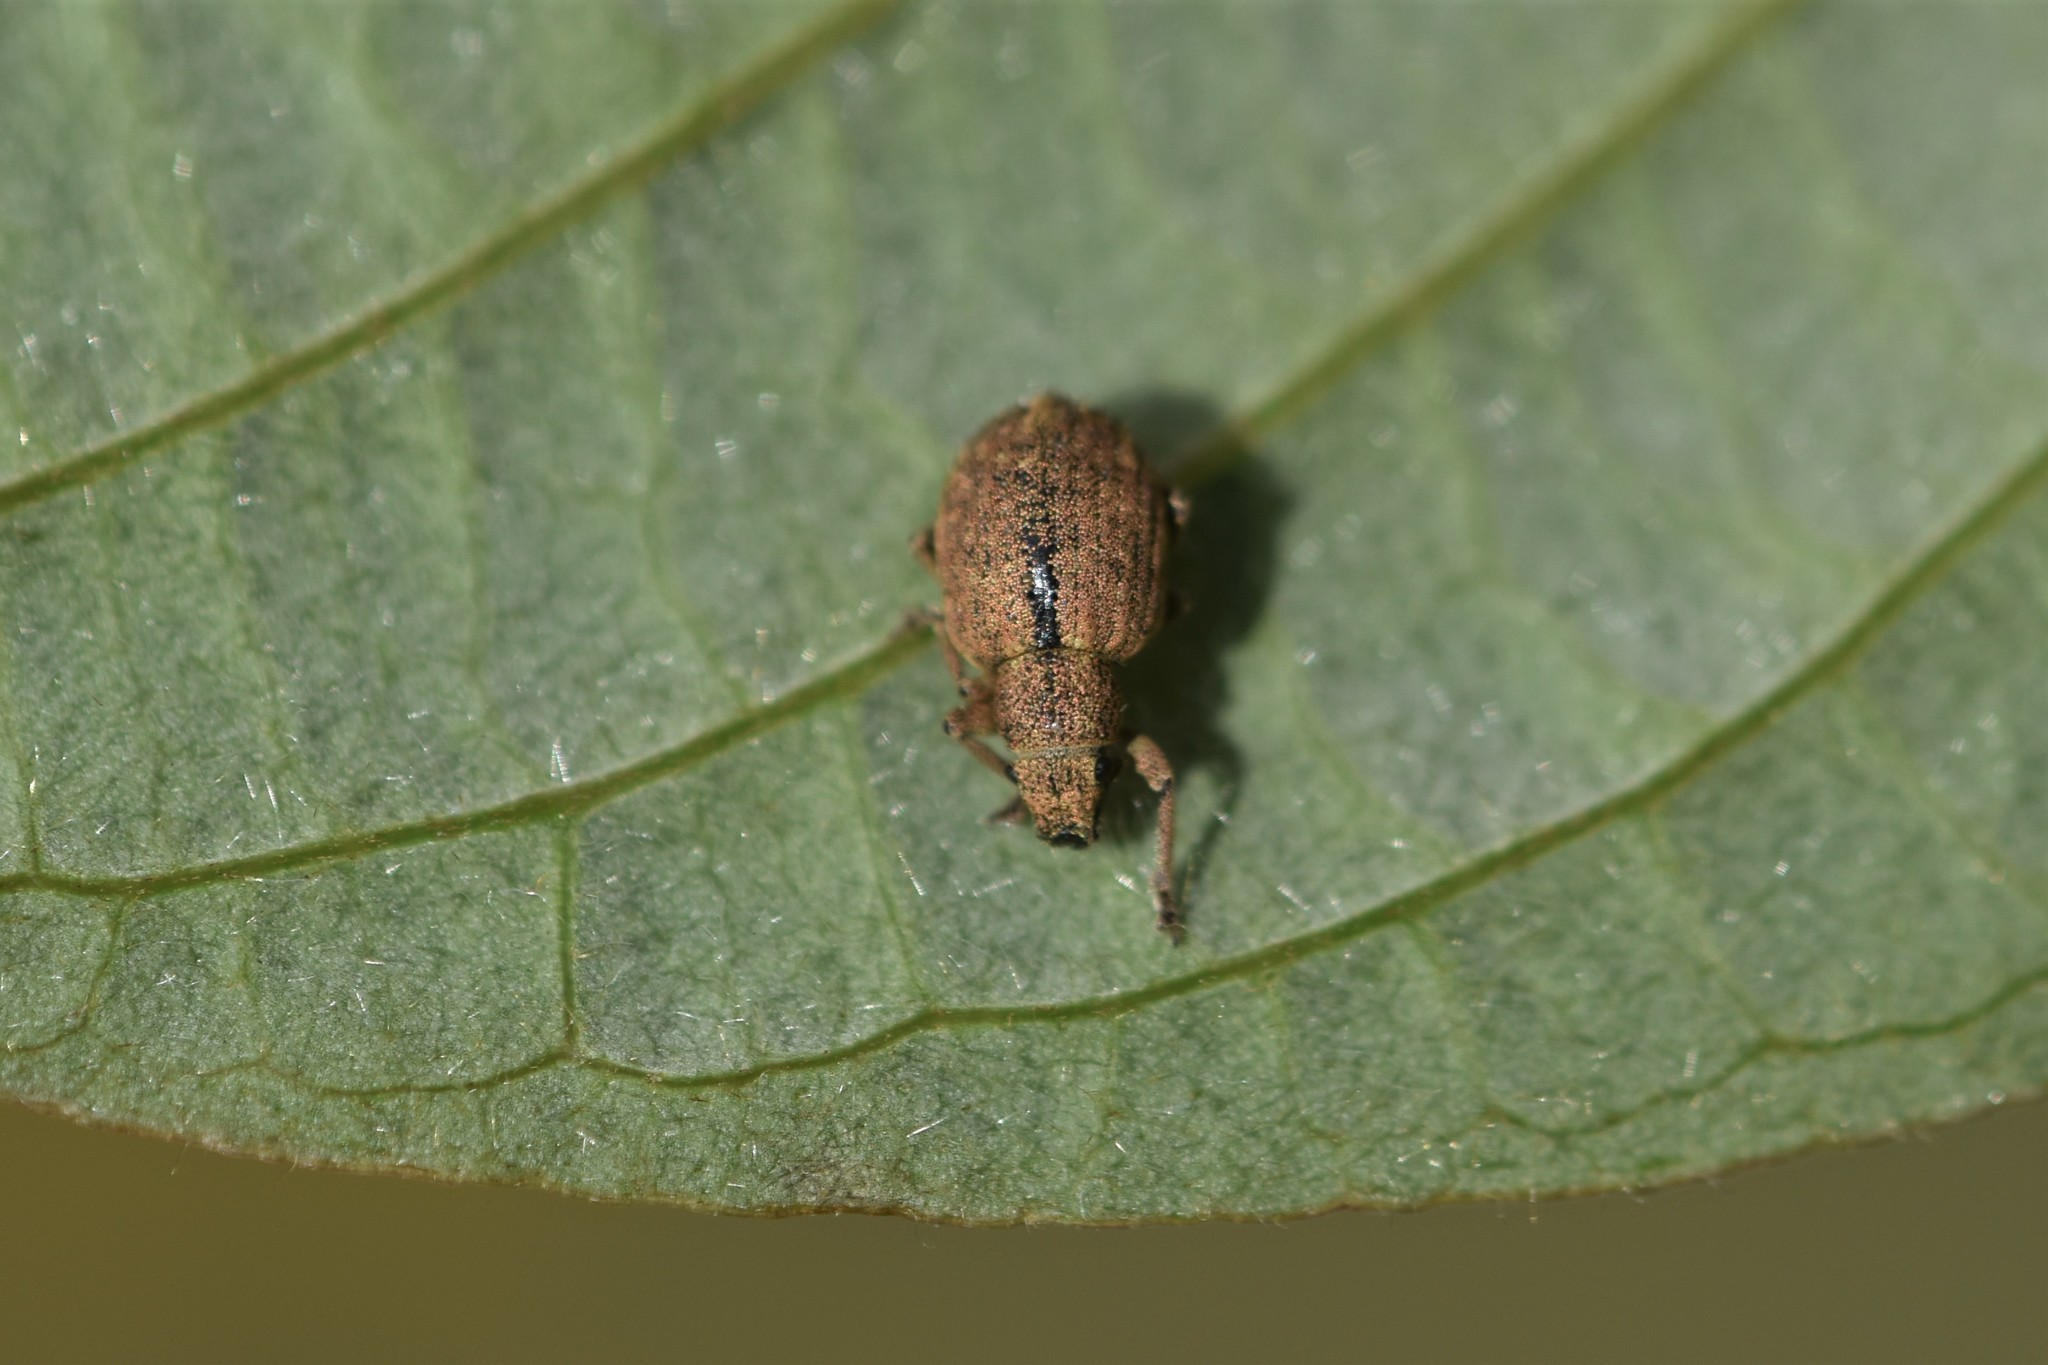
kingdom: Animalia
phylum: Arthropoda
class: Insecta
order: Coleoptera
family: Curculionidae
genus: Strophosoma
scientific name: Strophosoma melanogrammum
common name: Weevil
